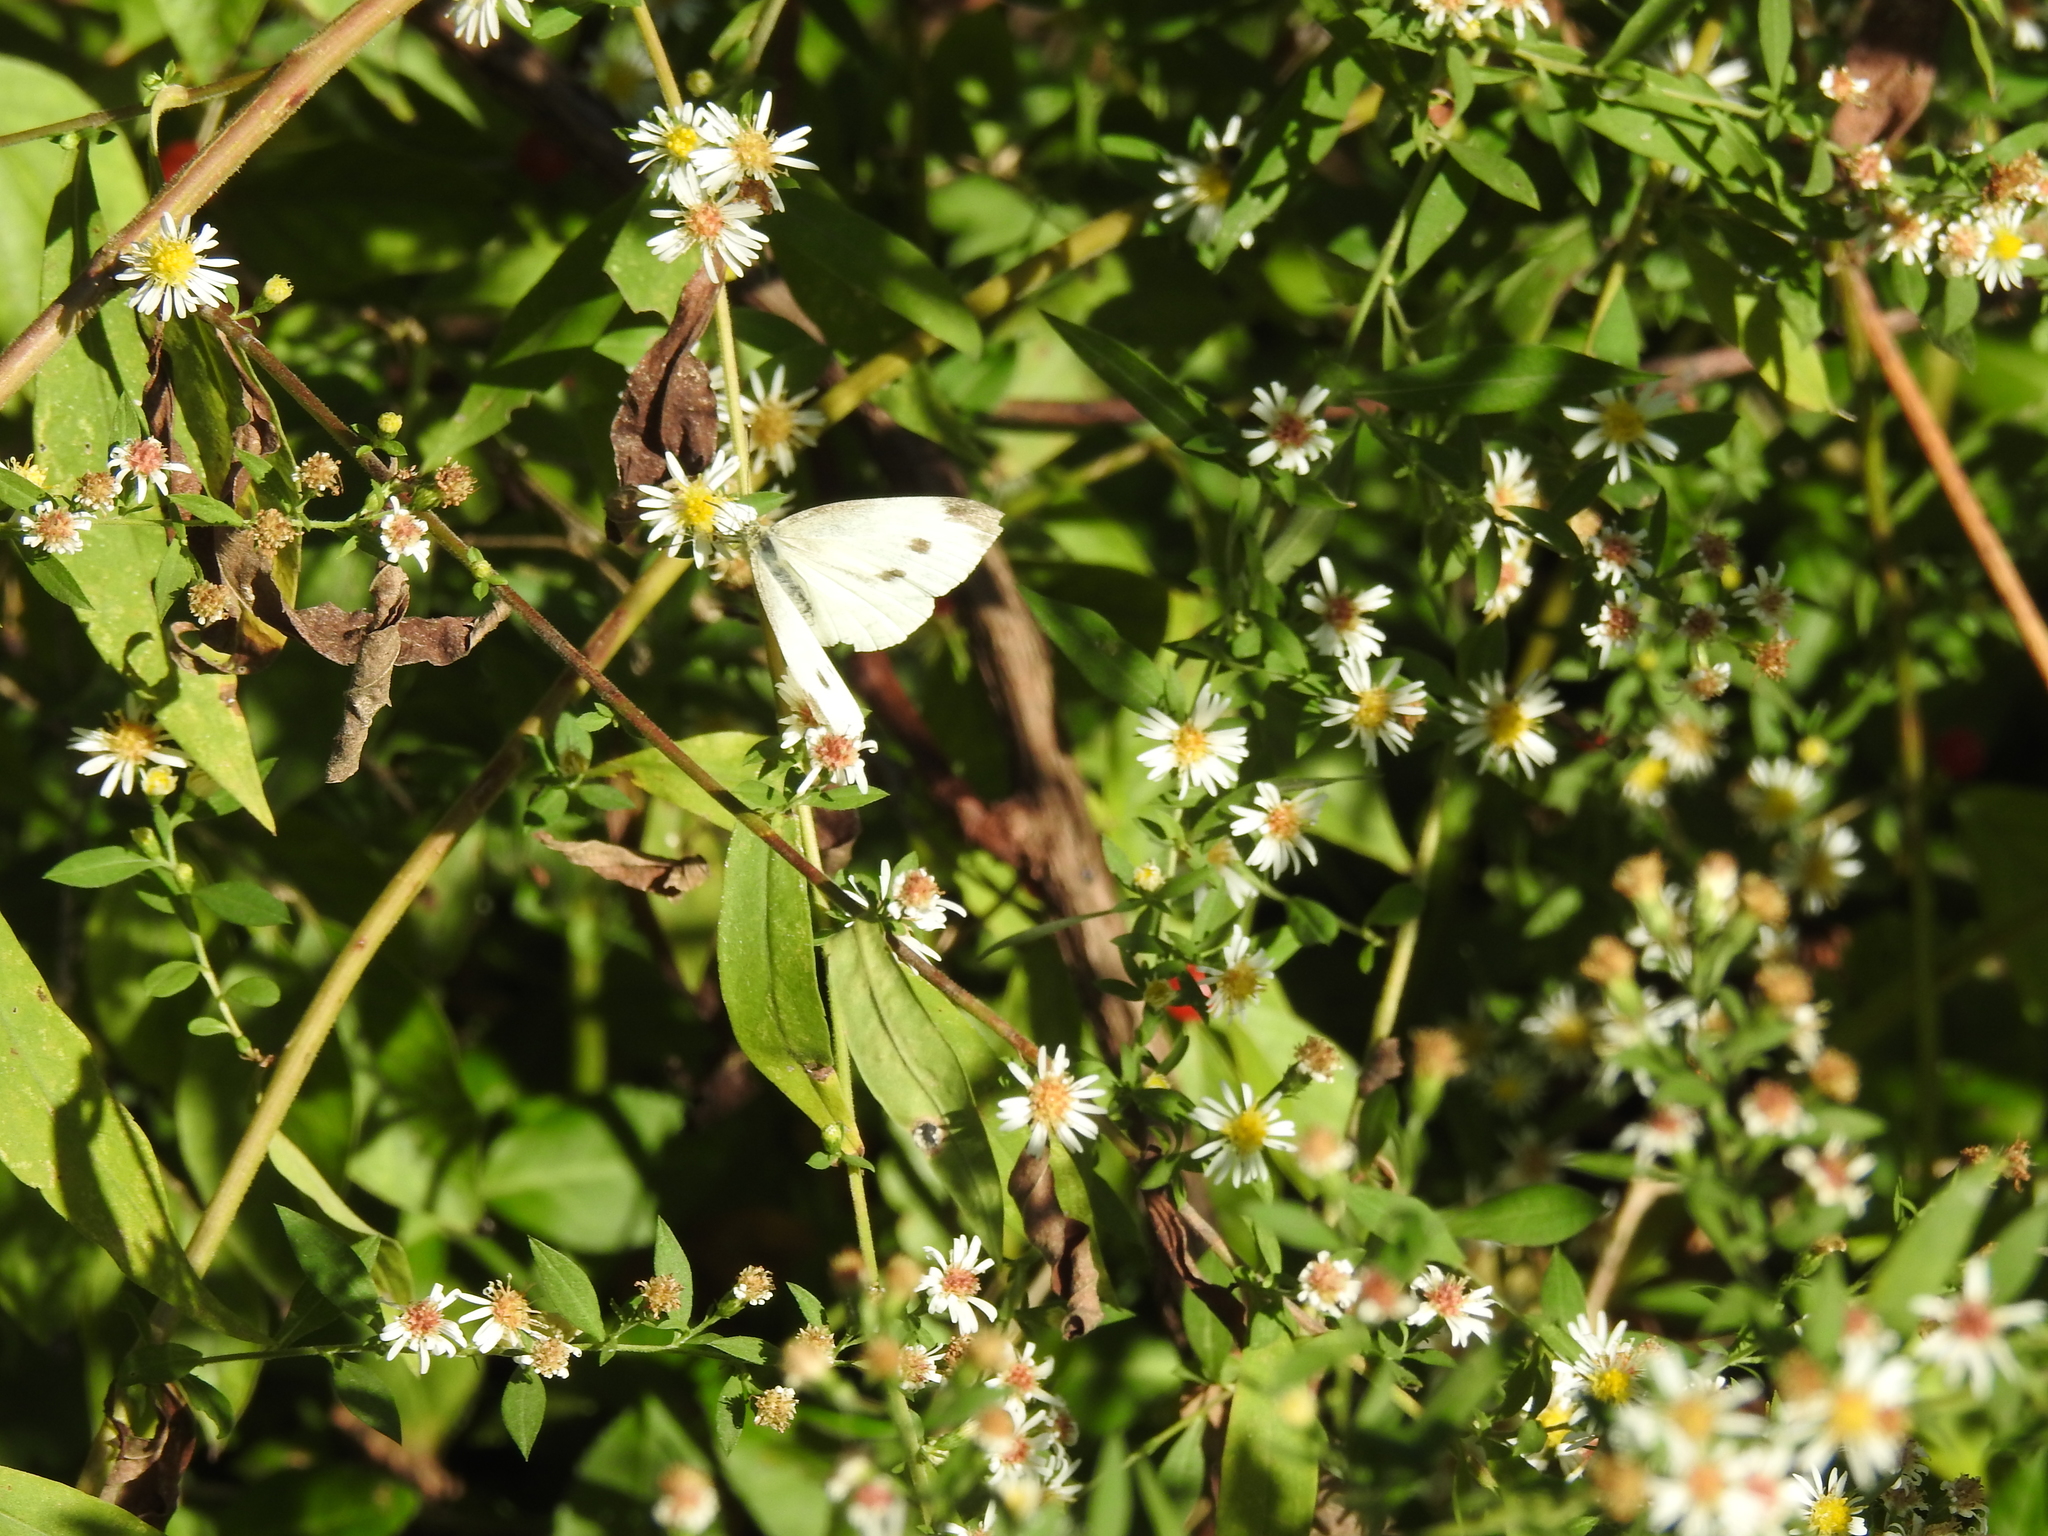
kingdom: Animalia
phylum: Arthropoda
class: Insecta
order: Lepidoptera
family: Pieridae
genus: Pieris
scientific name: Pieris rapae
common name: Small white
